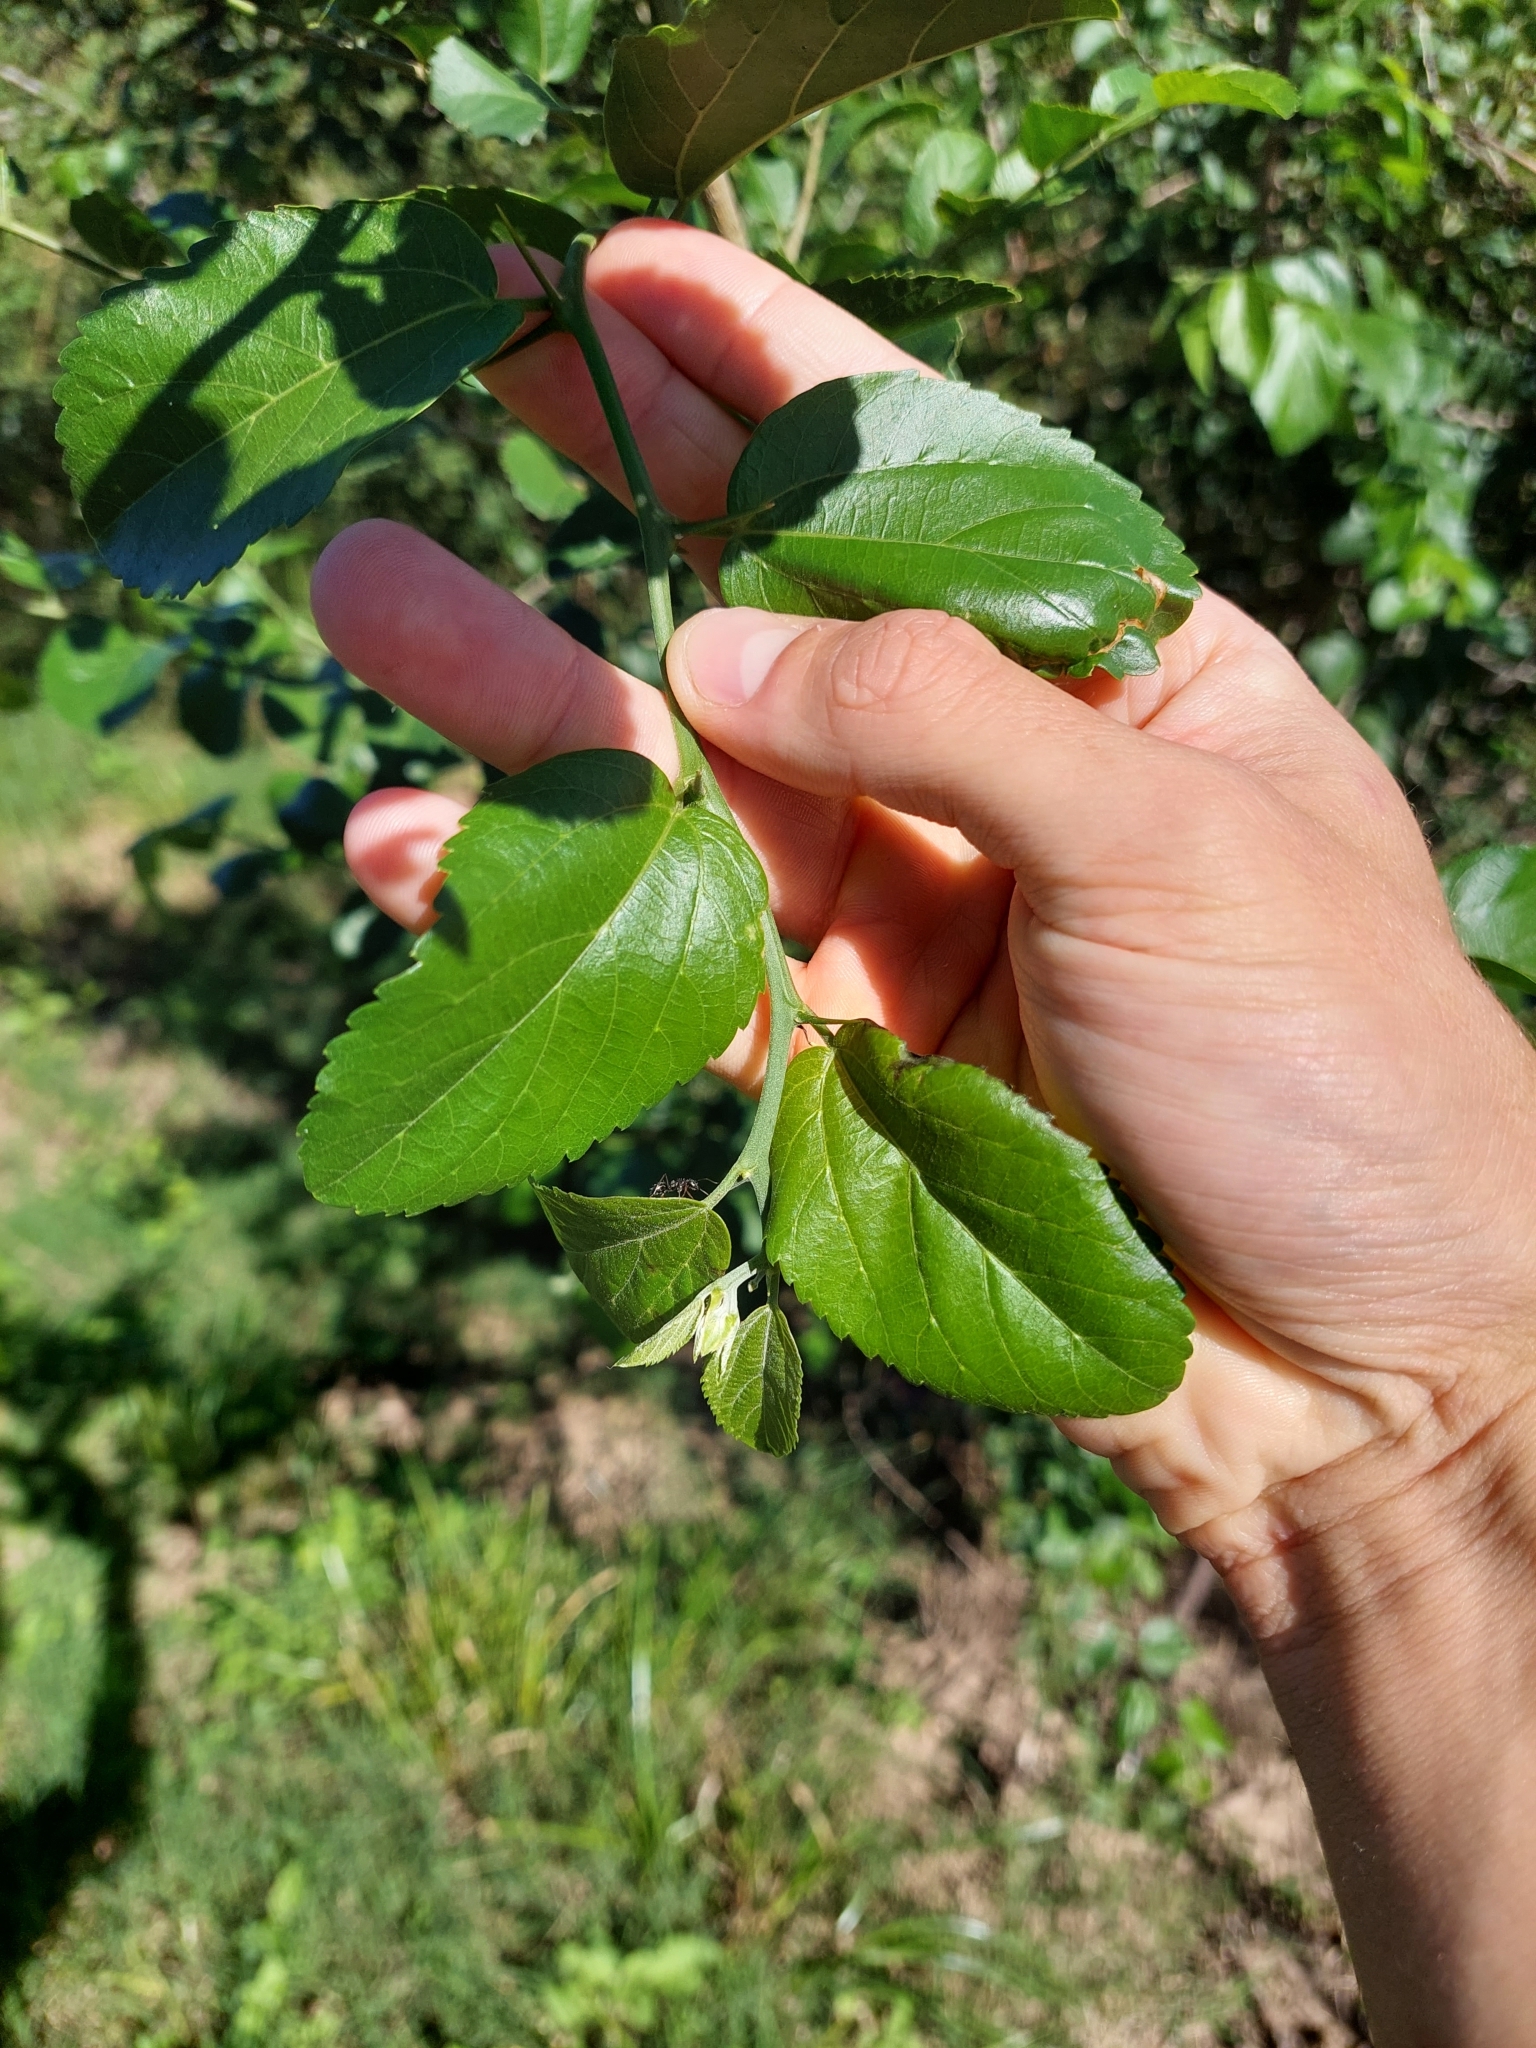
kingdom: Plantae
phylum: Tracheophyta
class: Magnoliopsida
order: Rosales
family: Cannabaceae
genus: Celtis
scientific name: Celtis iguanaea
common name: Iguana hackberry
